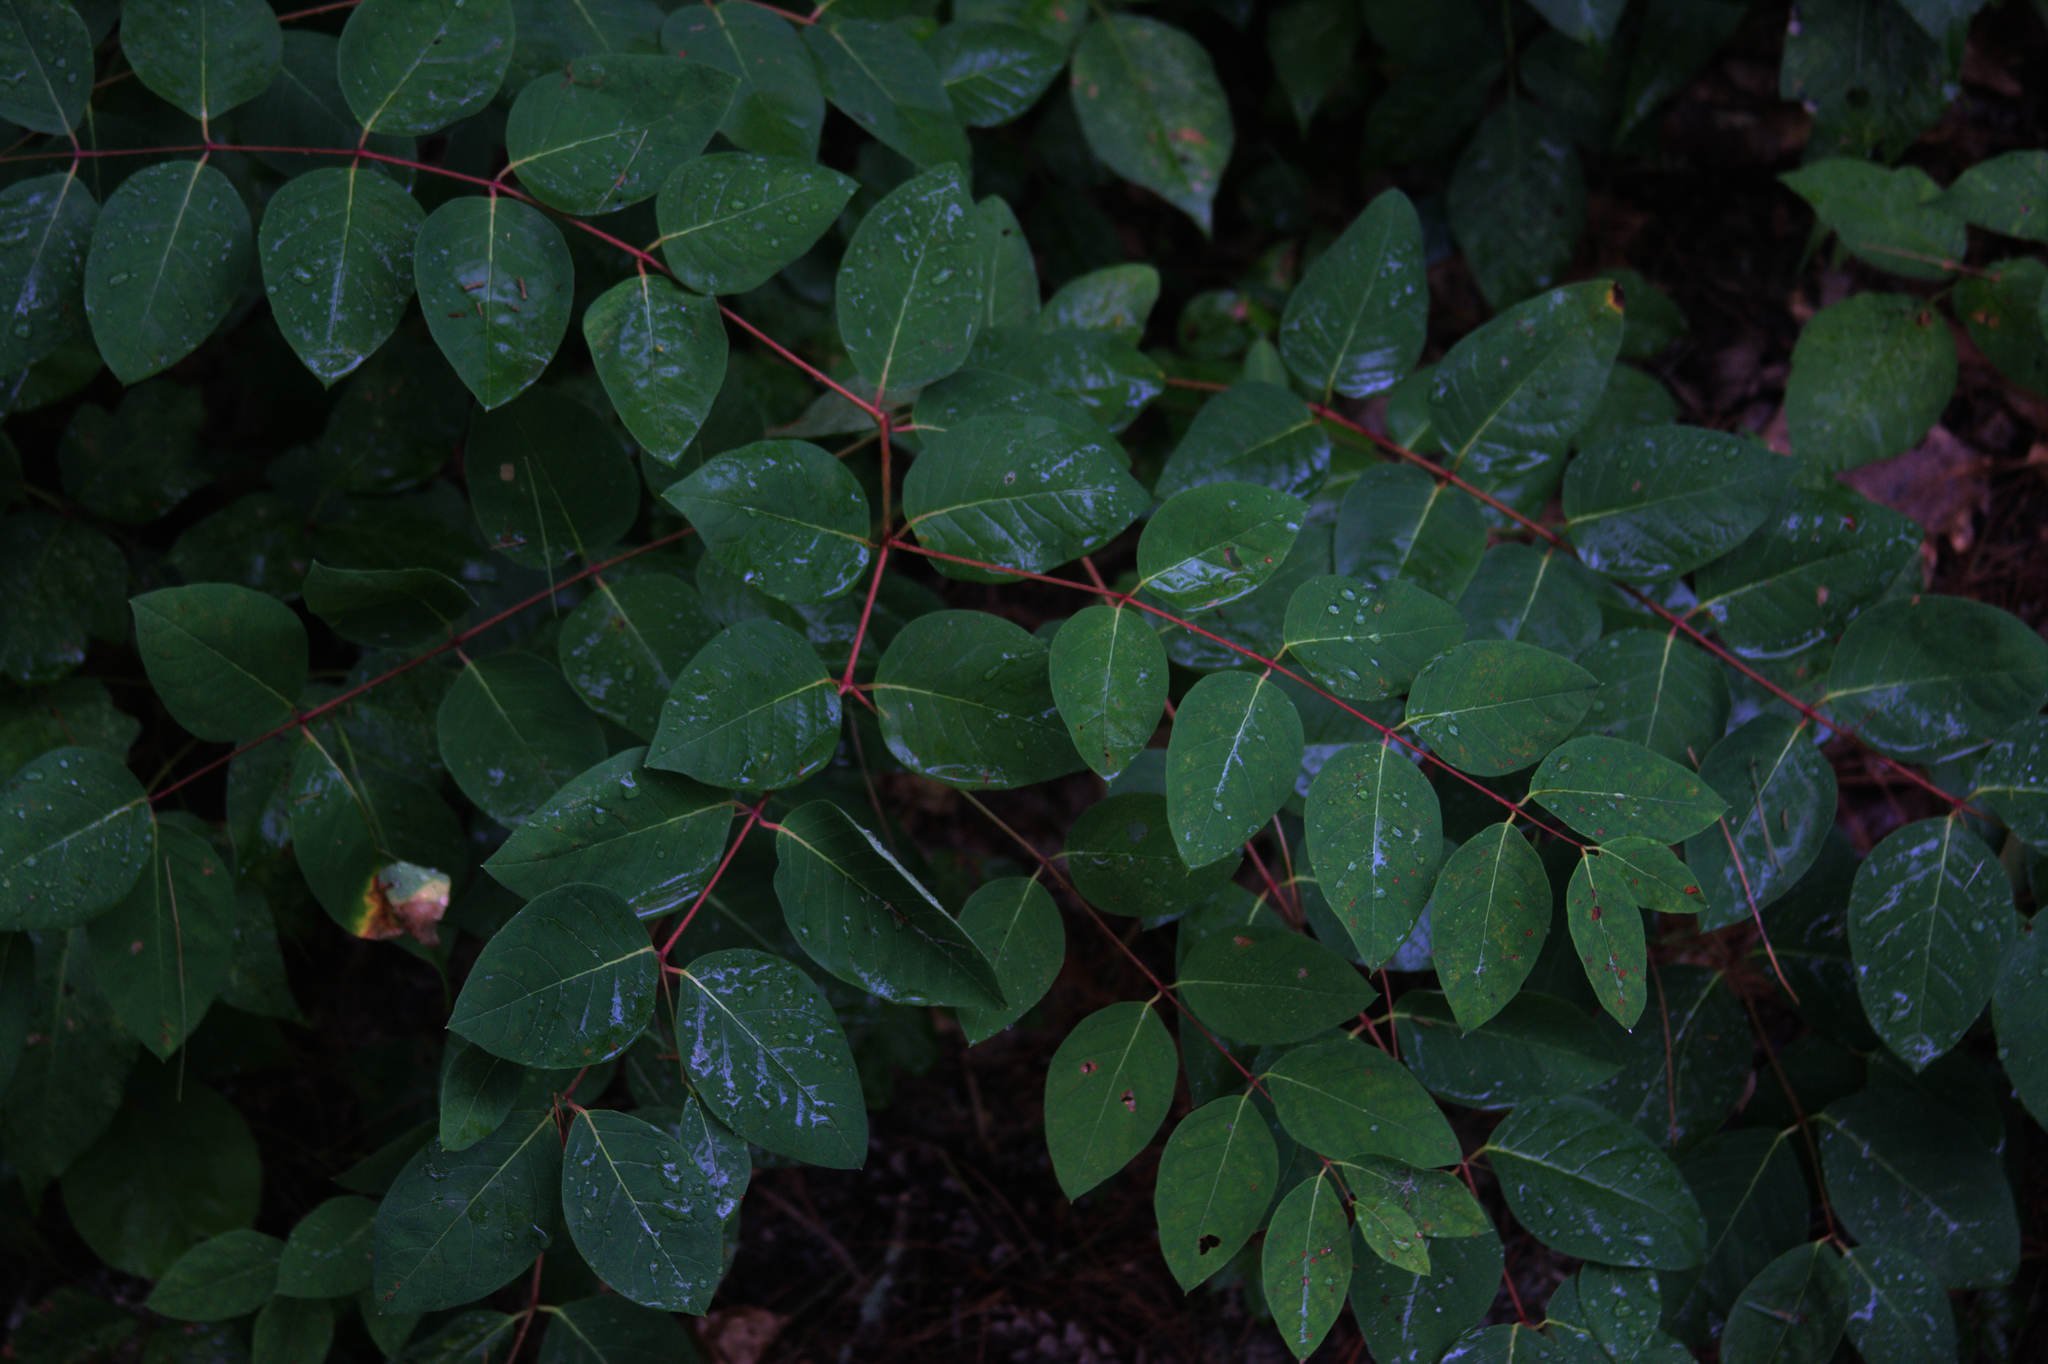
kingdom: Plantae
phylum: Tracheophyta
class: Magnoliopsida
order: Gentianales
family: Apocynaceae
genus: Apocynum
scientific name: Apocynum androsaemifolium
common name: Spreading dogbane
